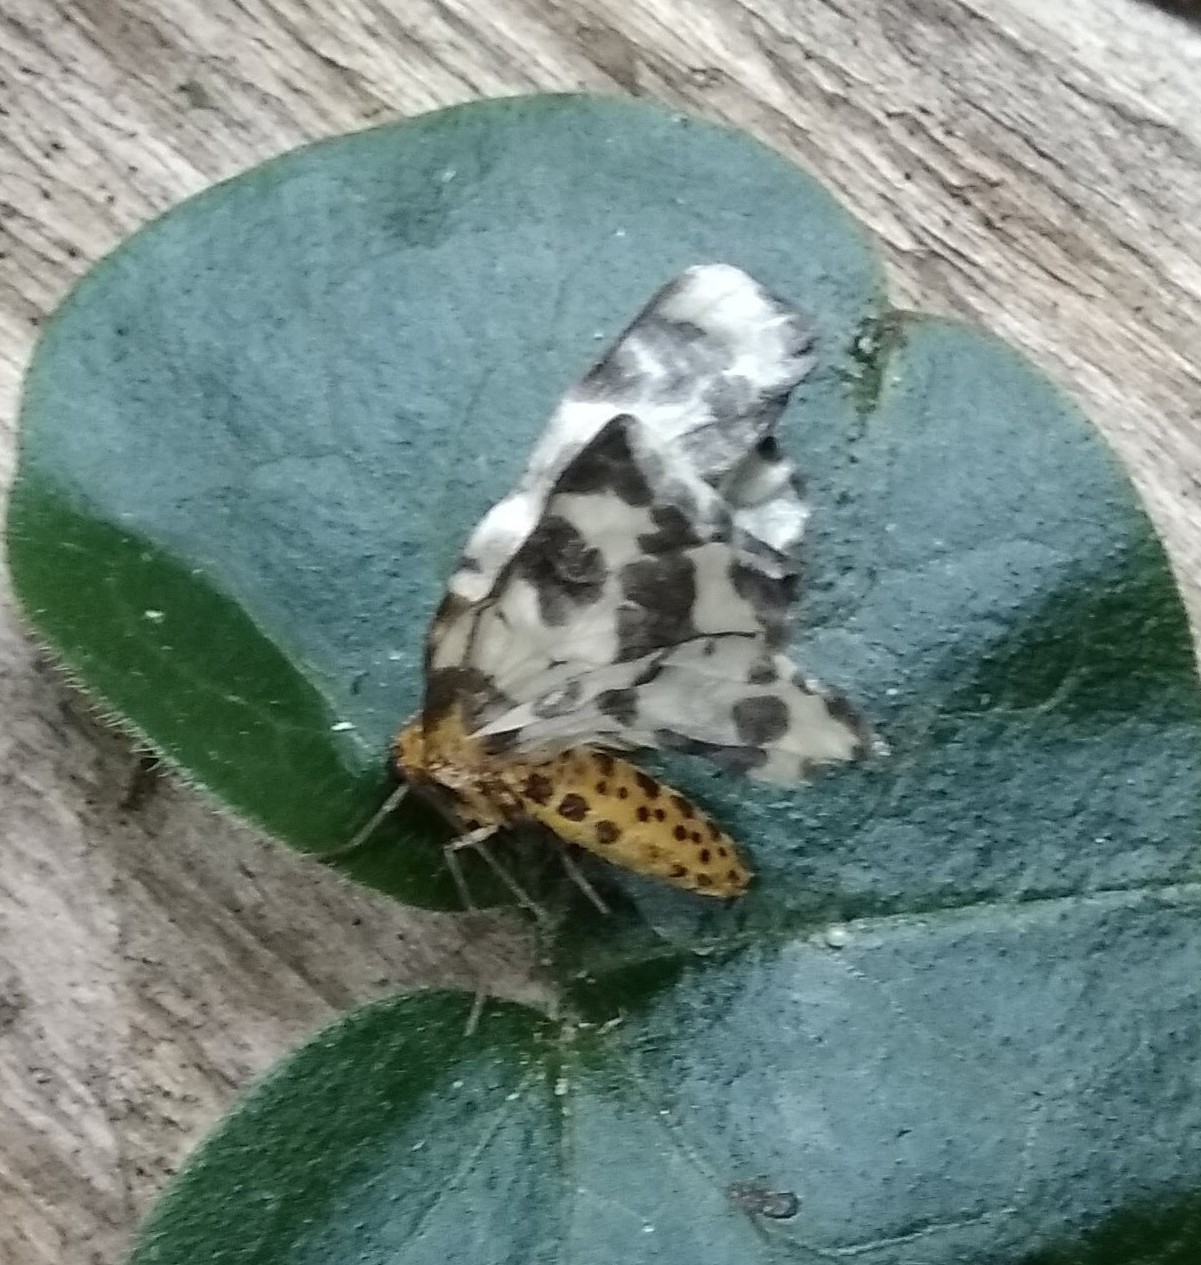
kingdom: Animalia
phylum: Arthropoda
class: Insecta
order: Lepidoptera
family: Geometridae
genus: Abraxas
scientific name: Abraxas sylvata
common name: Clouded magpie
